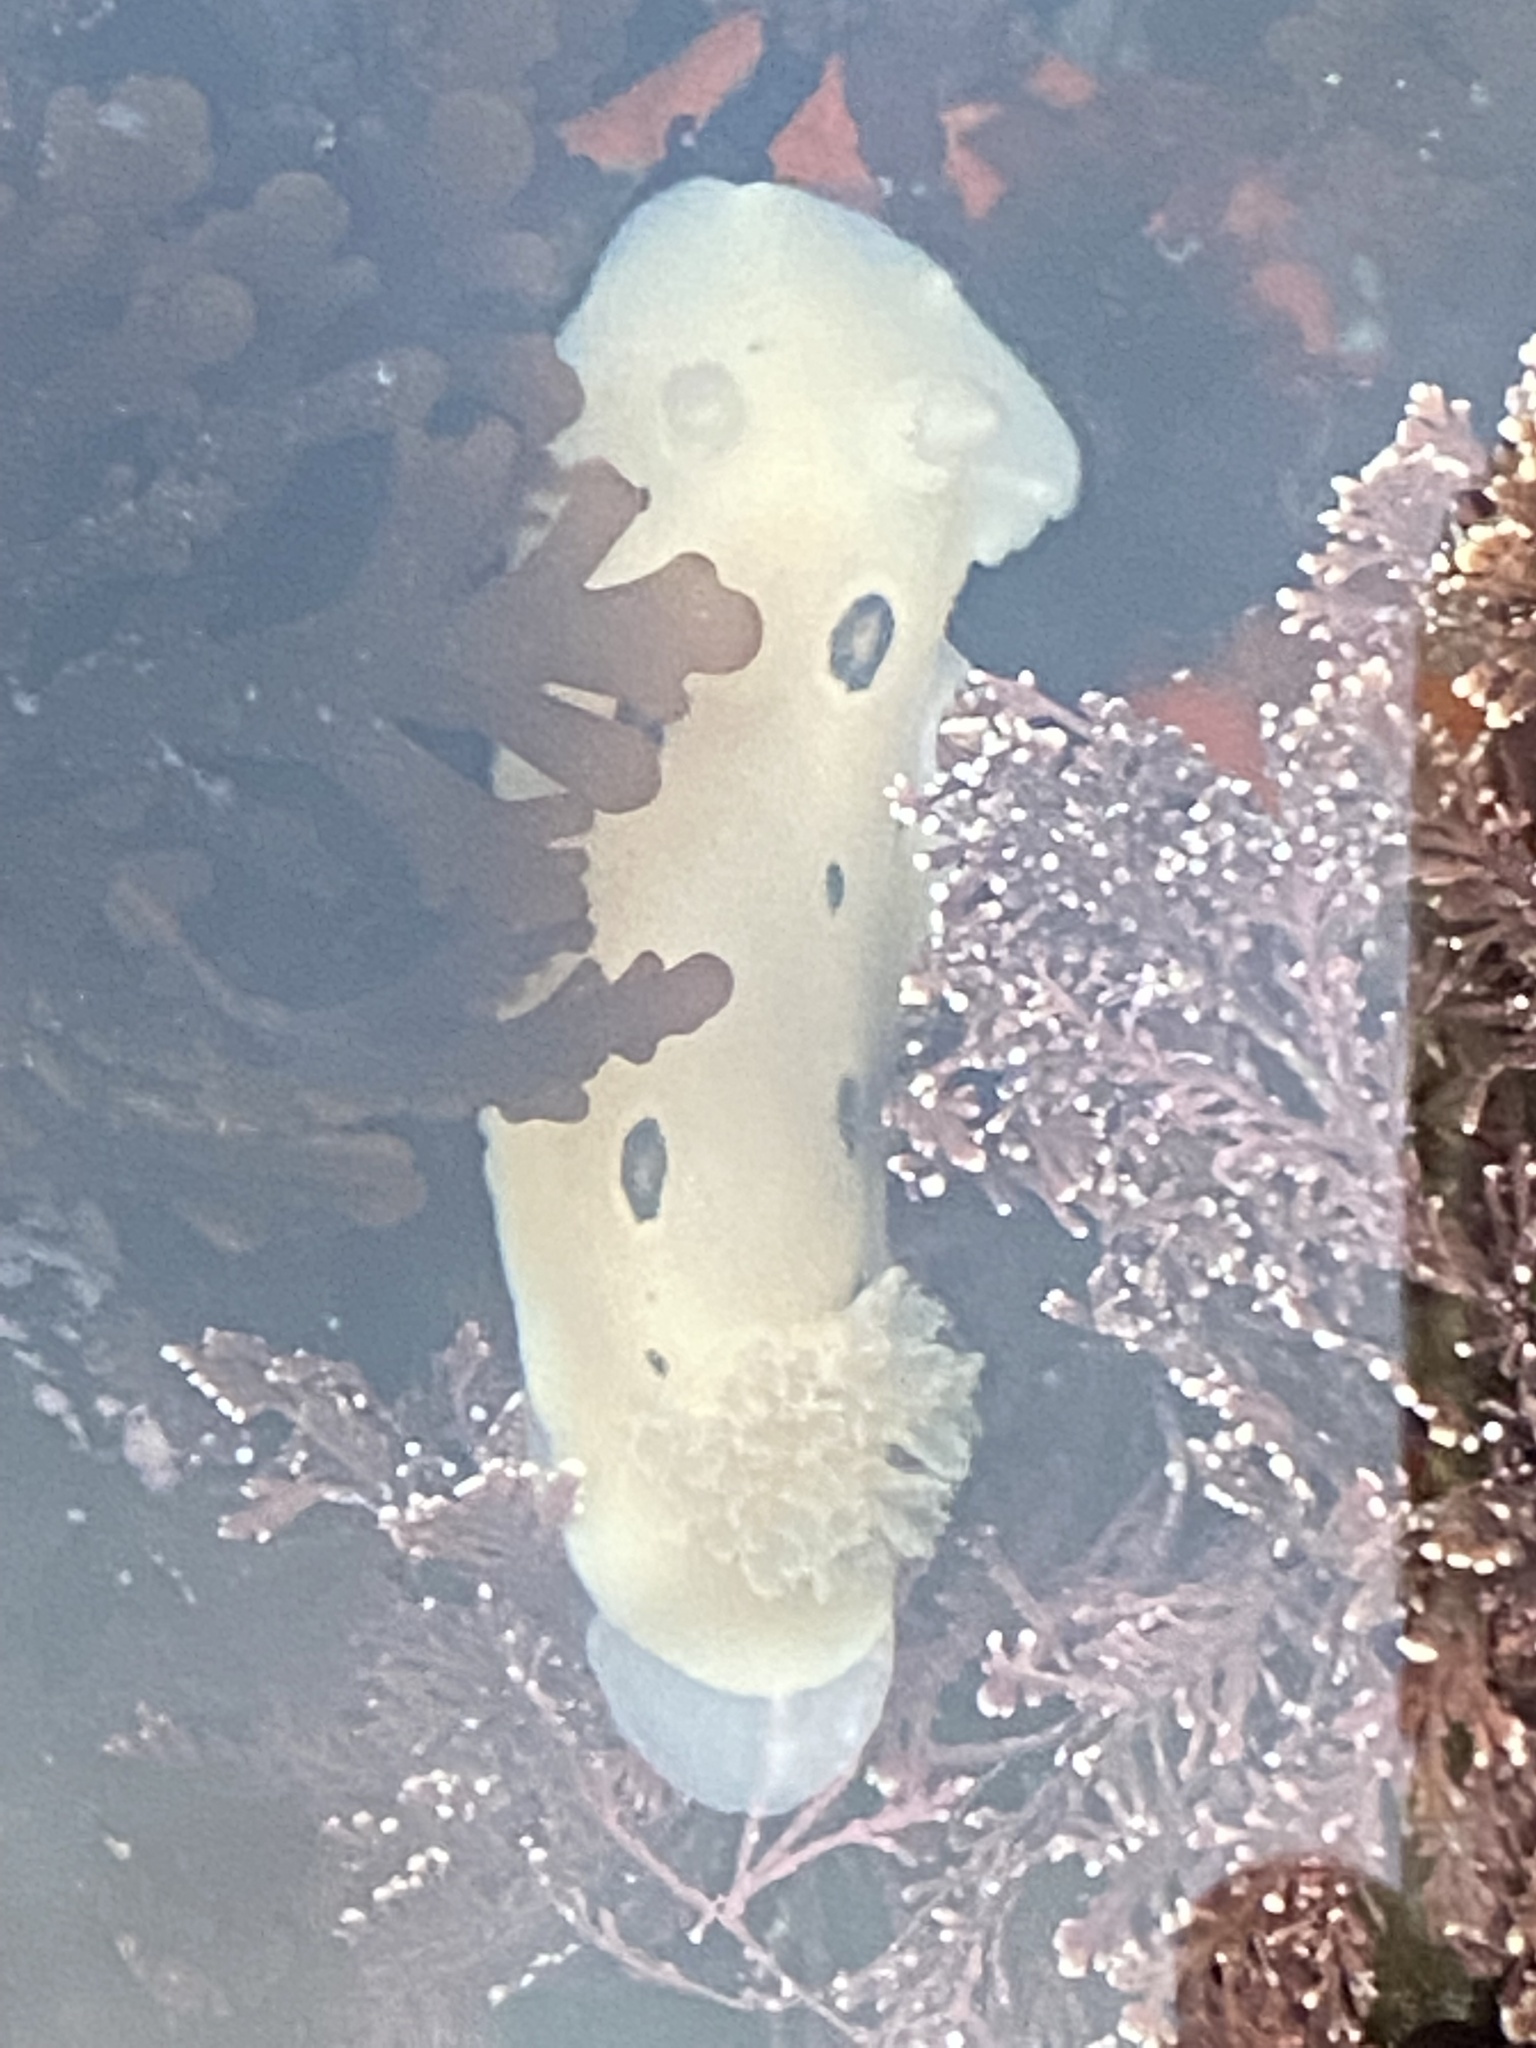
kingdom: Animalia
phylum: Mollusca
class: Gastropoda
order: Nudibranchia
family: Discodorididae
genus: Diaulula
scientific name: Diaulula sandiegensis
